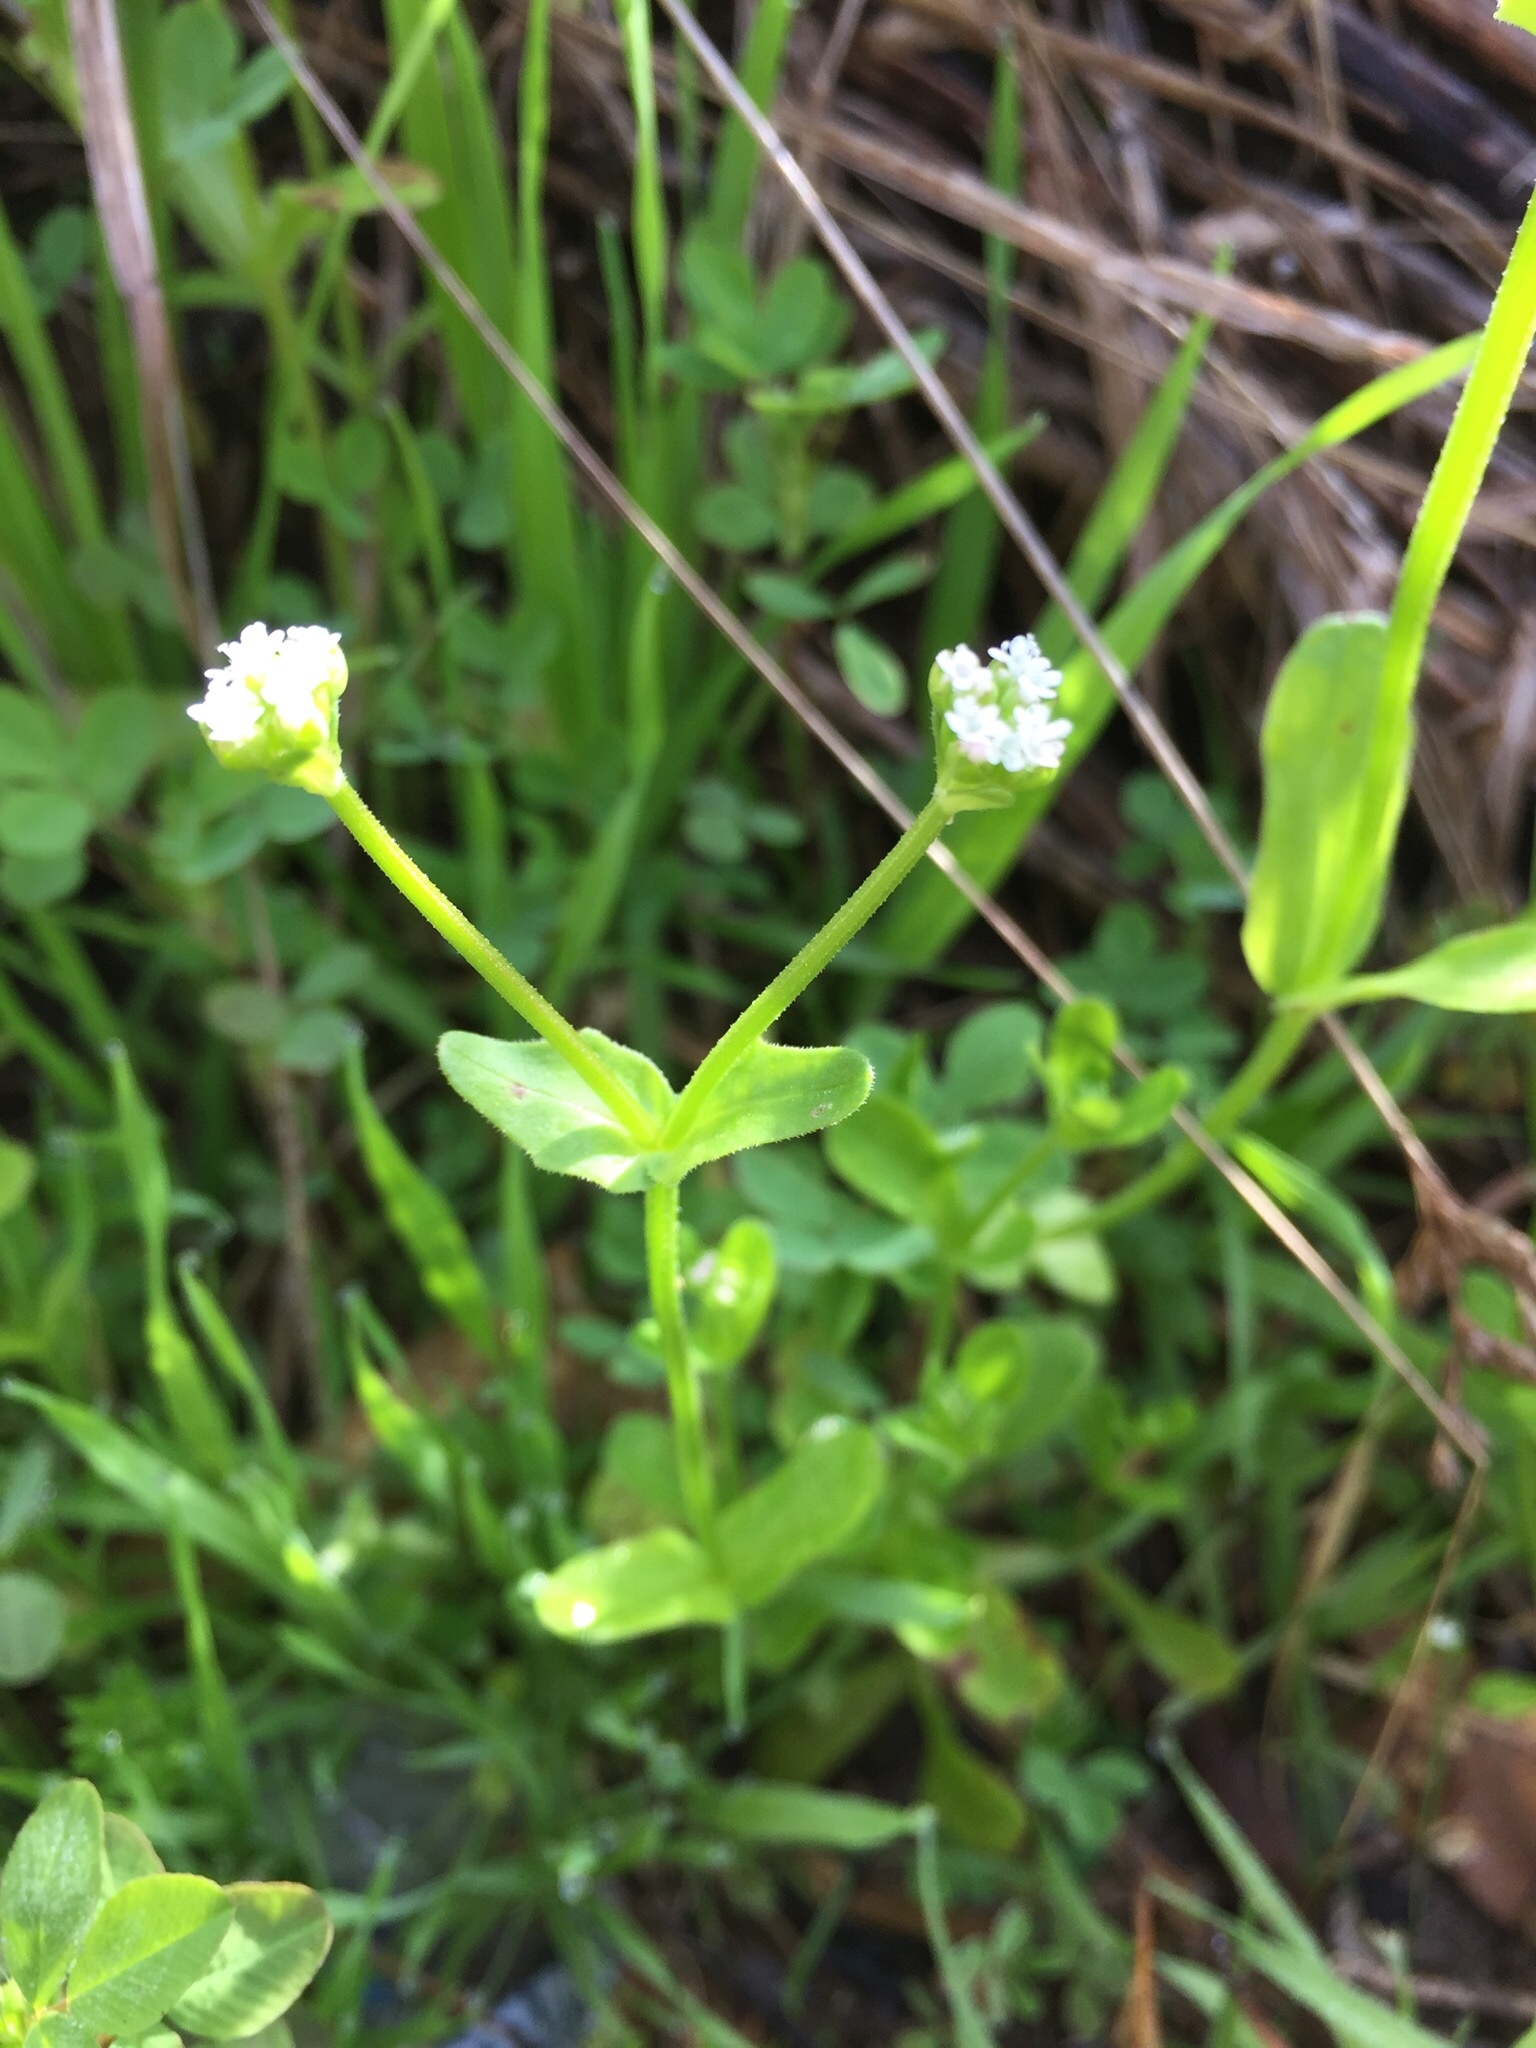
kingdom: Plantae
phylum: Tracheophyta
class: Magnoliopsida
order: Dipsacales
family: Caprifoliaceae
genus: Valerianella
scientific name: Valerianella radiata
